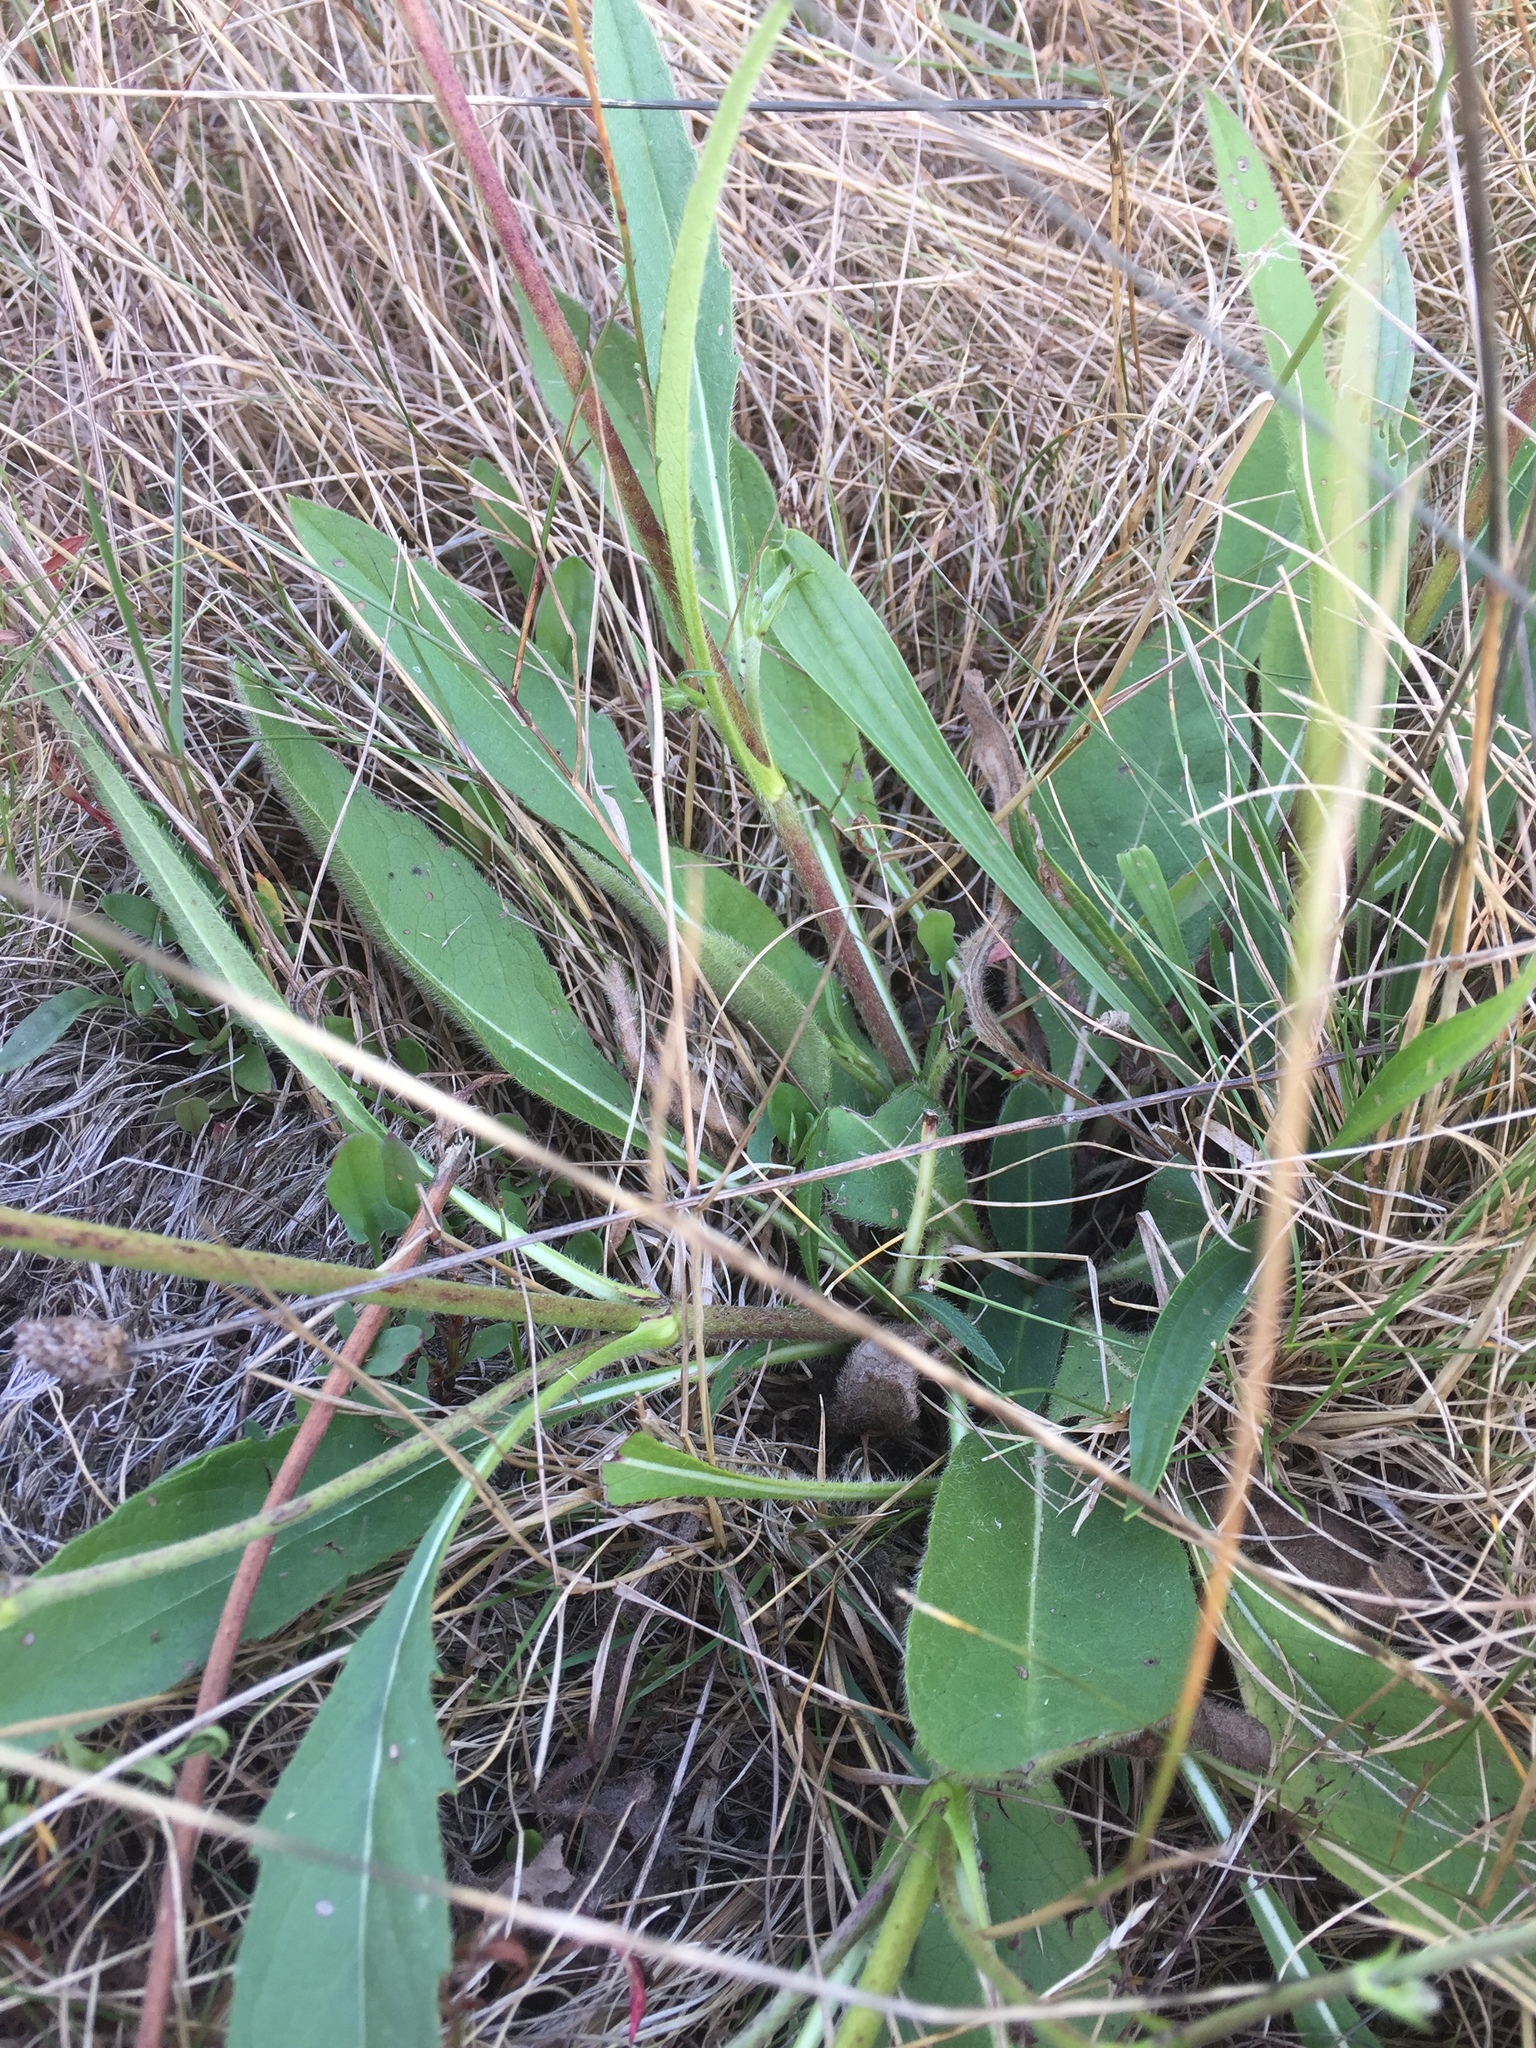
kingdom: Plantae
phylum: Tracheophyta
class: Magnoliopsida
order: Dipsacales
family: Caprifoliaceae
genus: Succisa
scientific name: Succisa pratensis
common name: Devil's-bit
